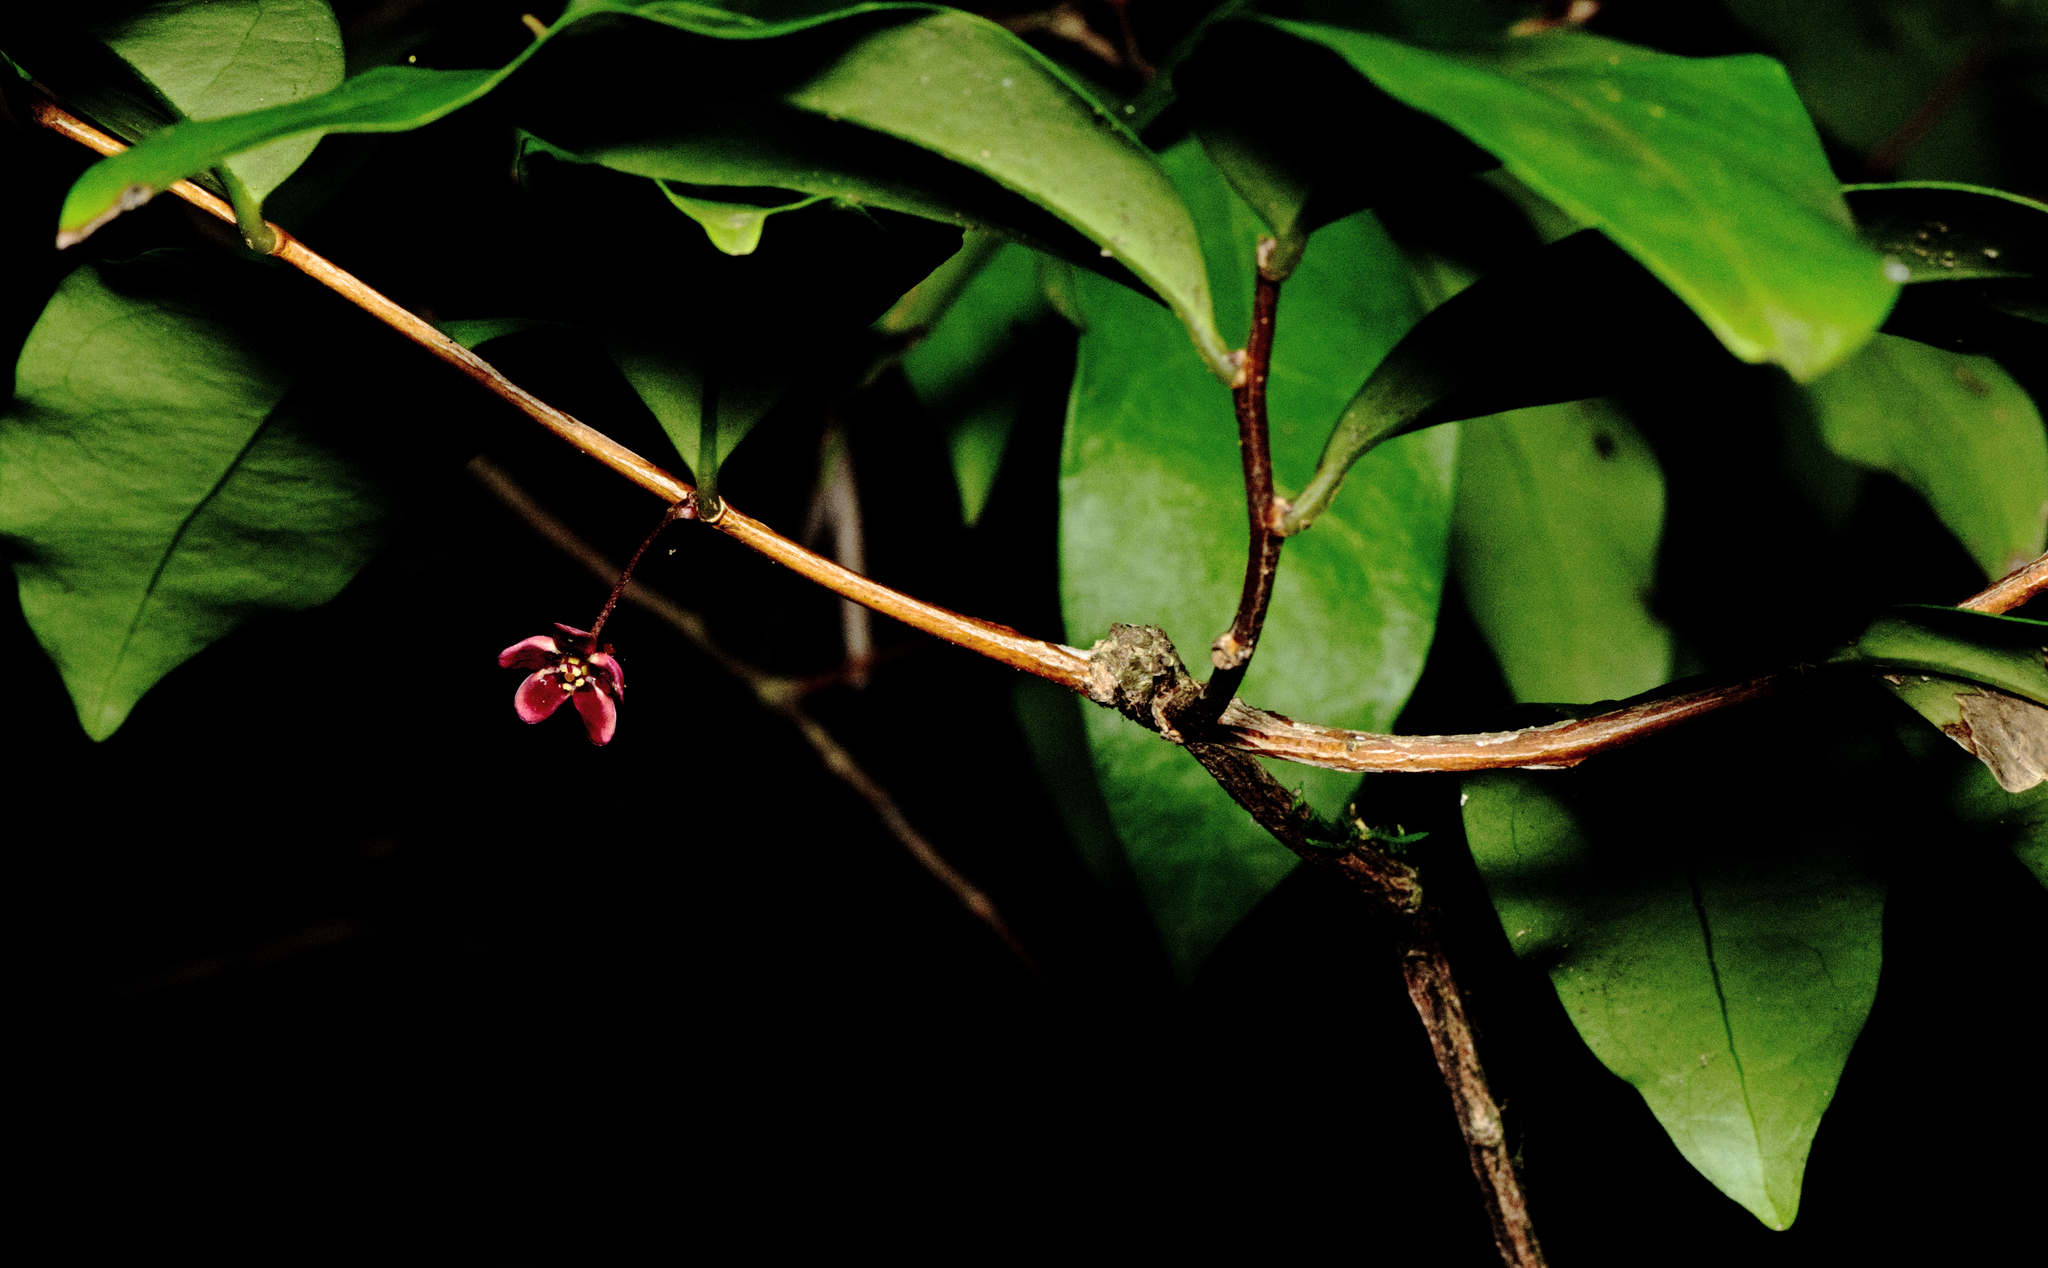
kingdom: Plantae
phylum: Tracheophyta
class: Magnoliopsida
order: Celastrales
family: Celastraceae
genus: Hedraianthera
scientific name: Hedraianthera porphyropetala
